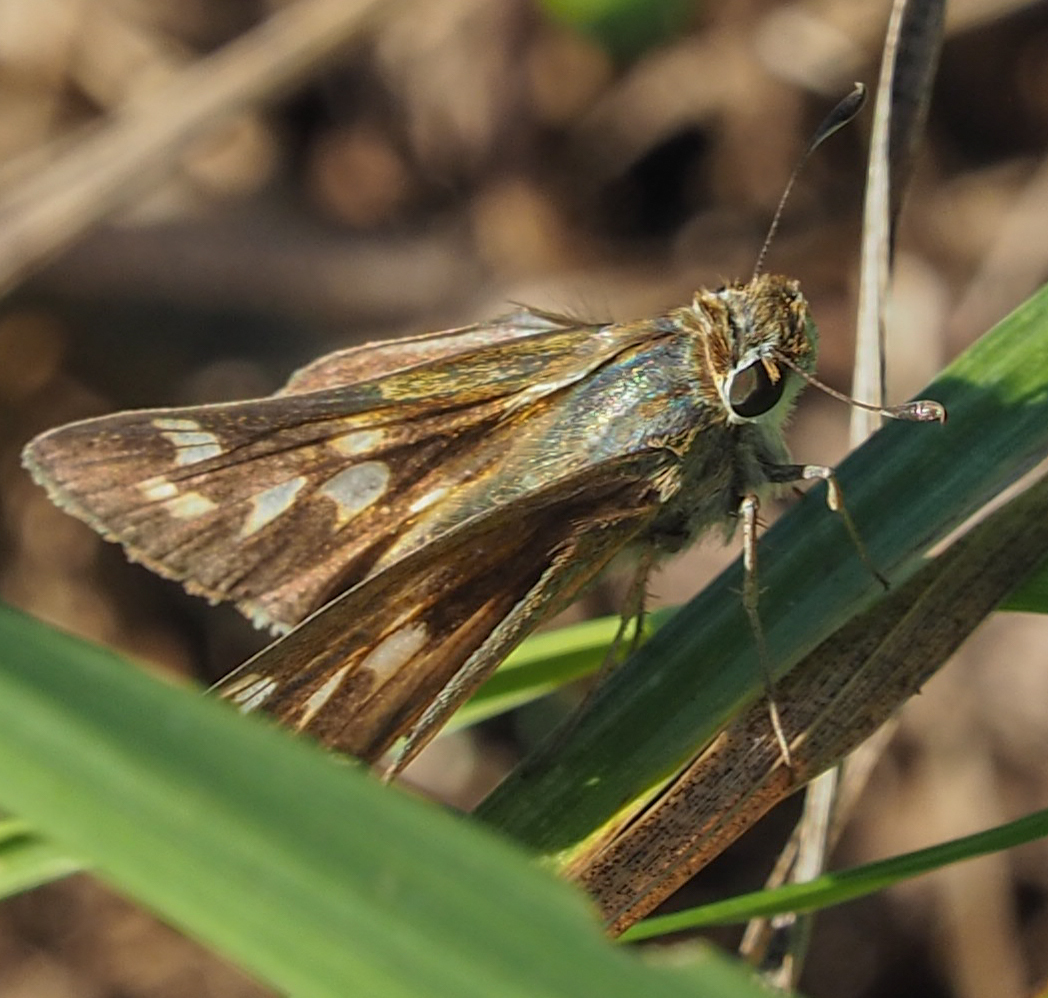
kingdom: Animalia
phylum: Arthropoda
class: Insecta
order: Lepidoptera
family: Hesperiidae
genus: Atalopedes
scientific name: Atalopedes
